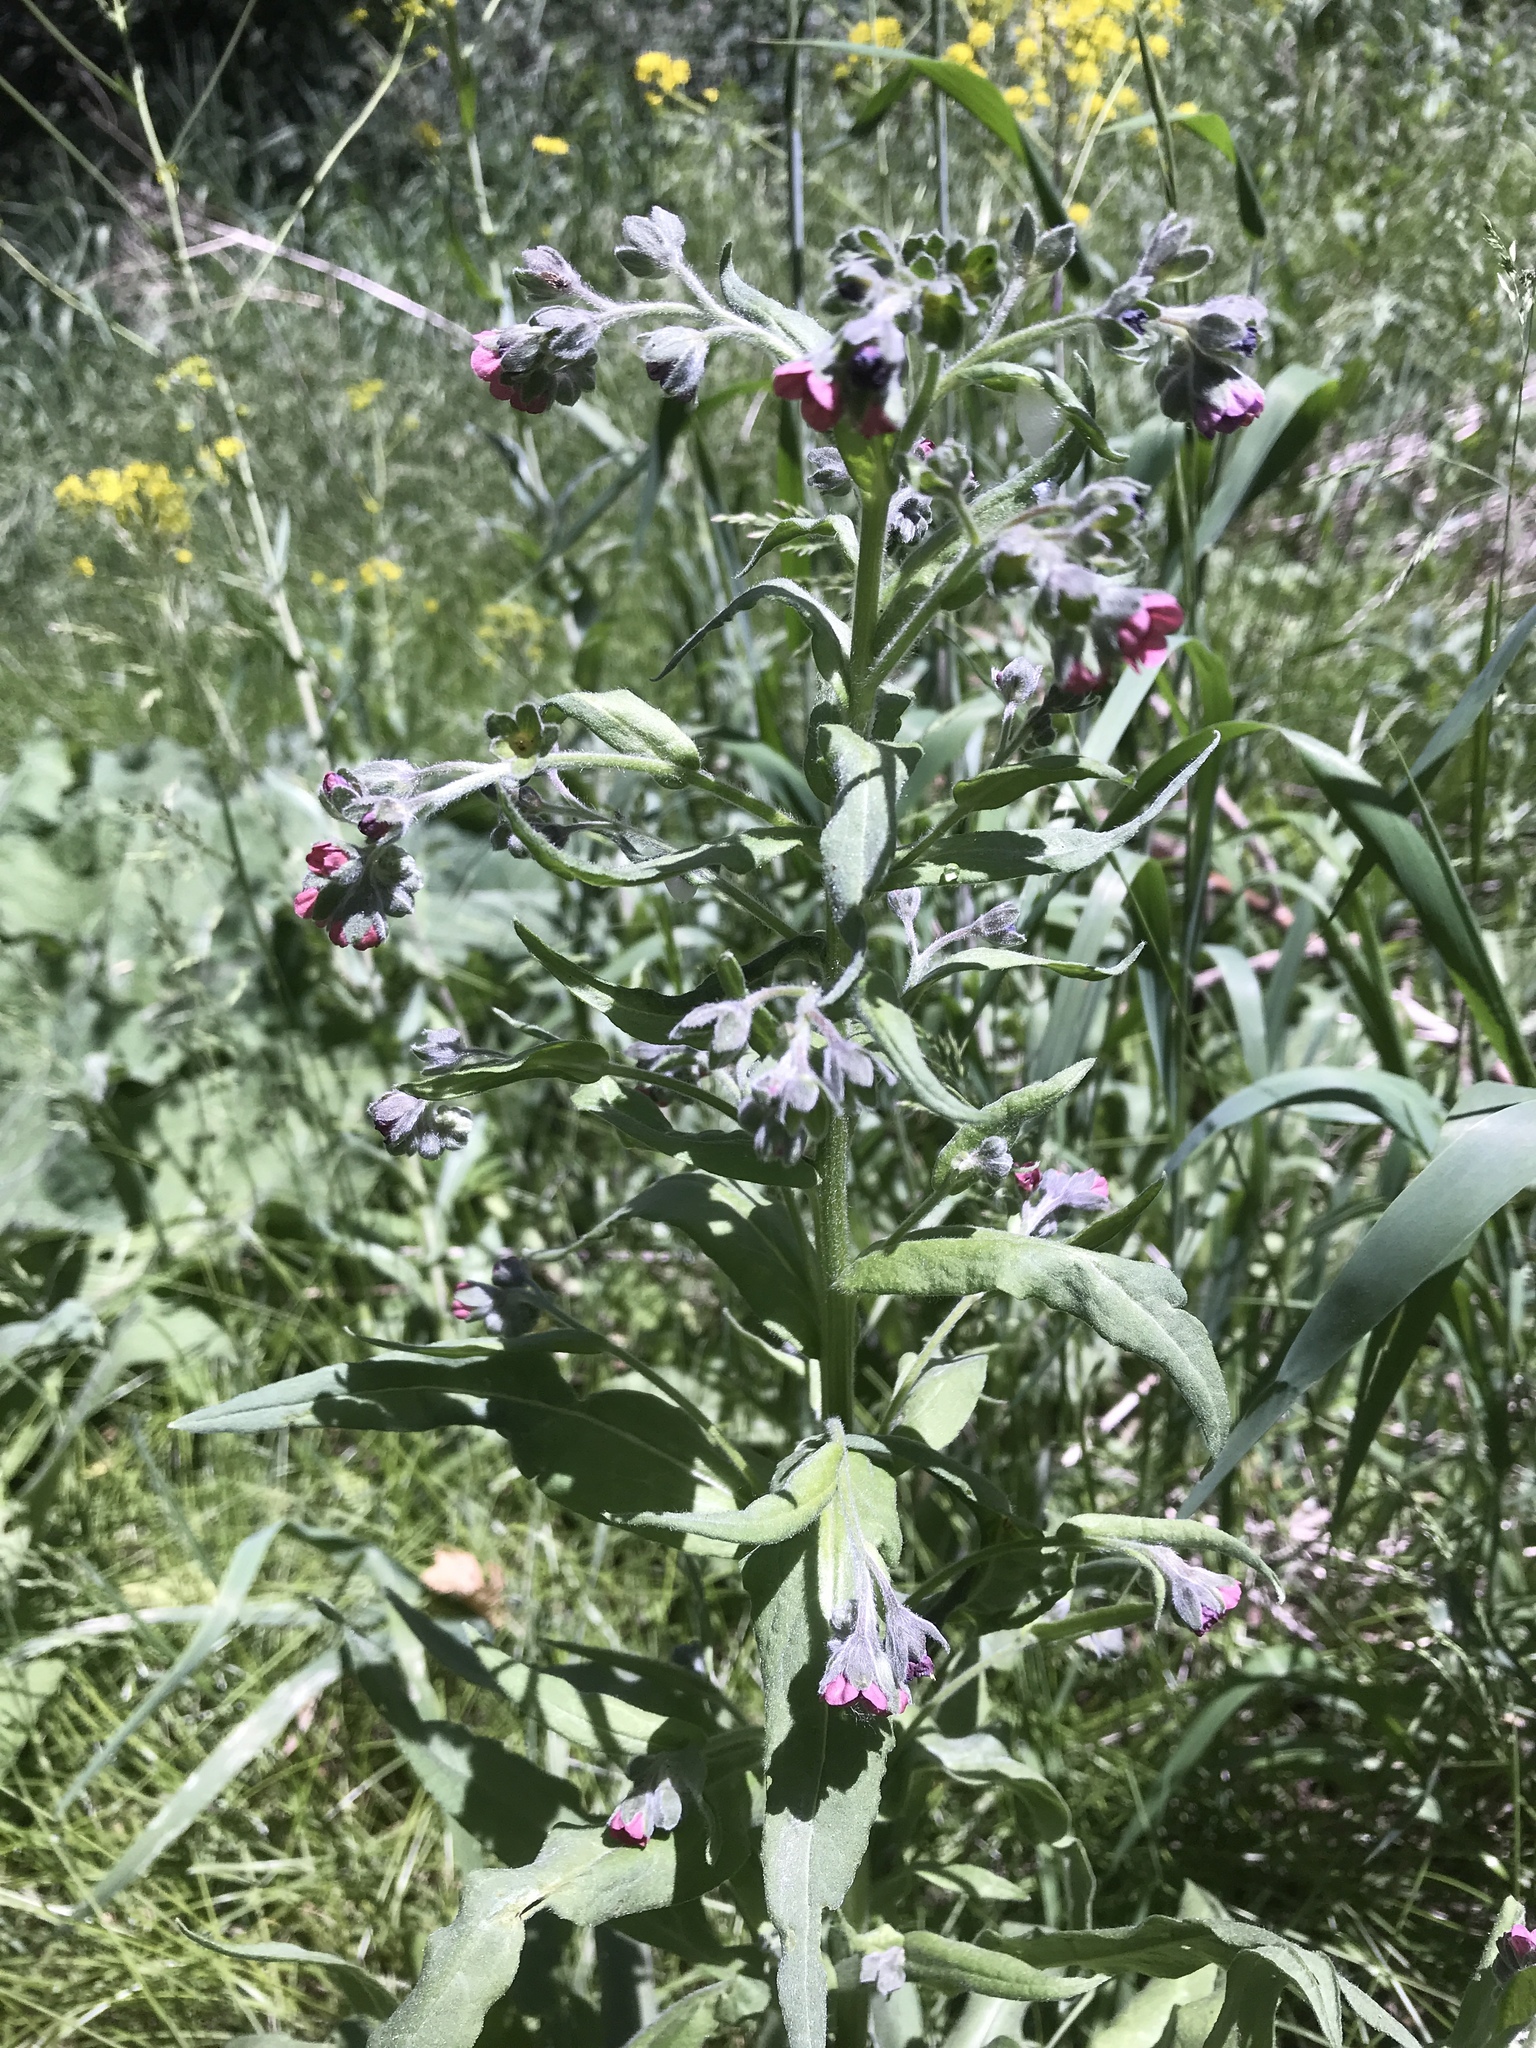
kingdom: Plantae
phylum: Tracheophyta
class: Magnoliopsida
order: Boraginales
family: Boraginaceae
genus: Cynoglossum
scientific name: Cynoglossum officinale
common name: Hound's-tongue
